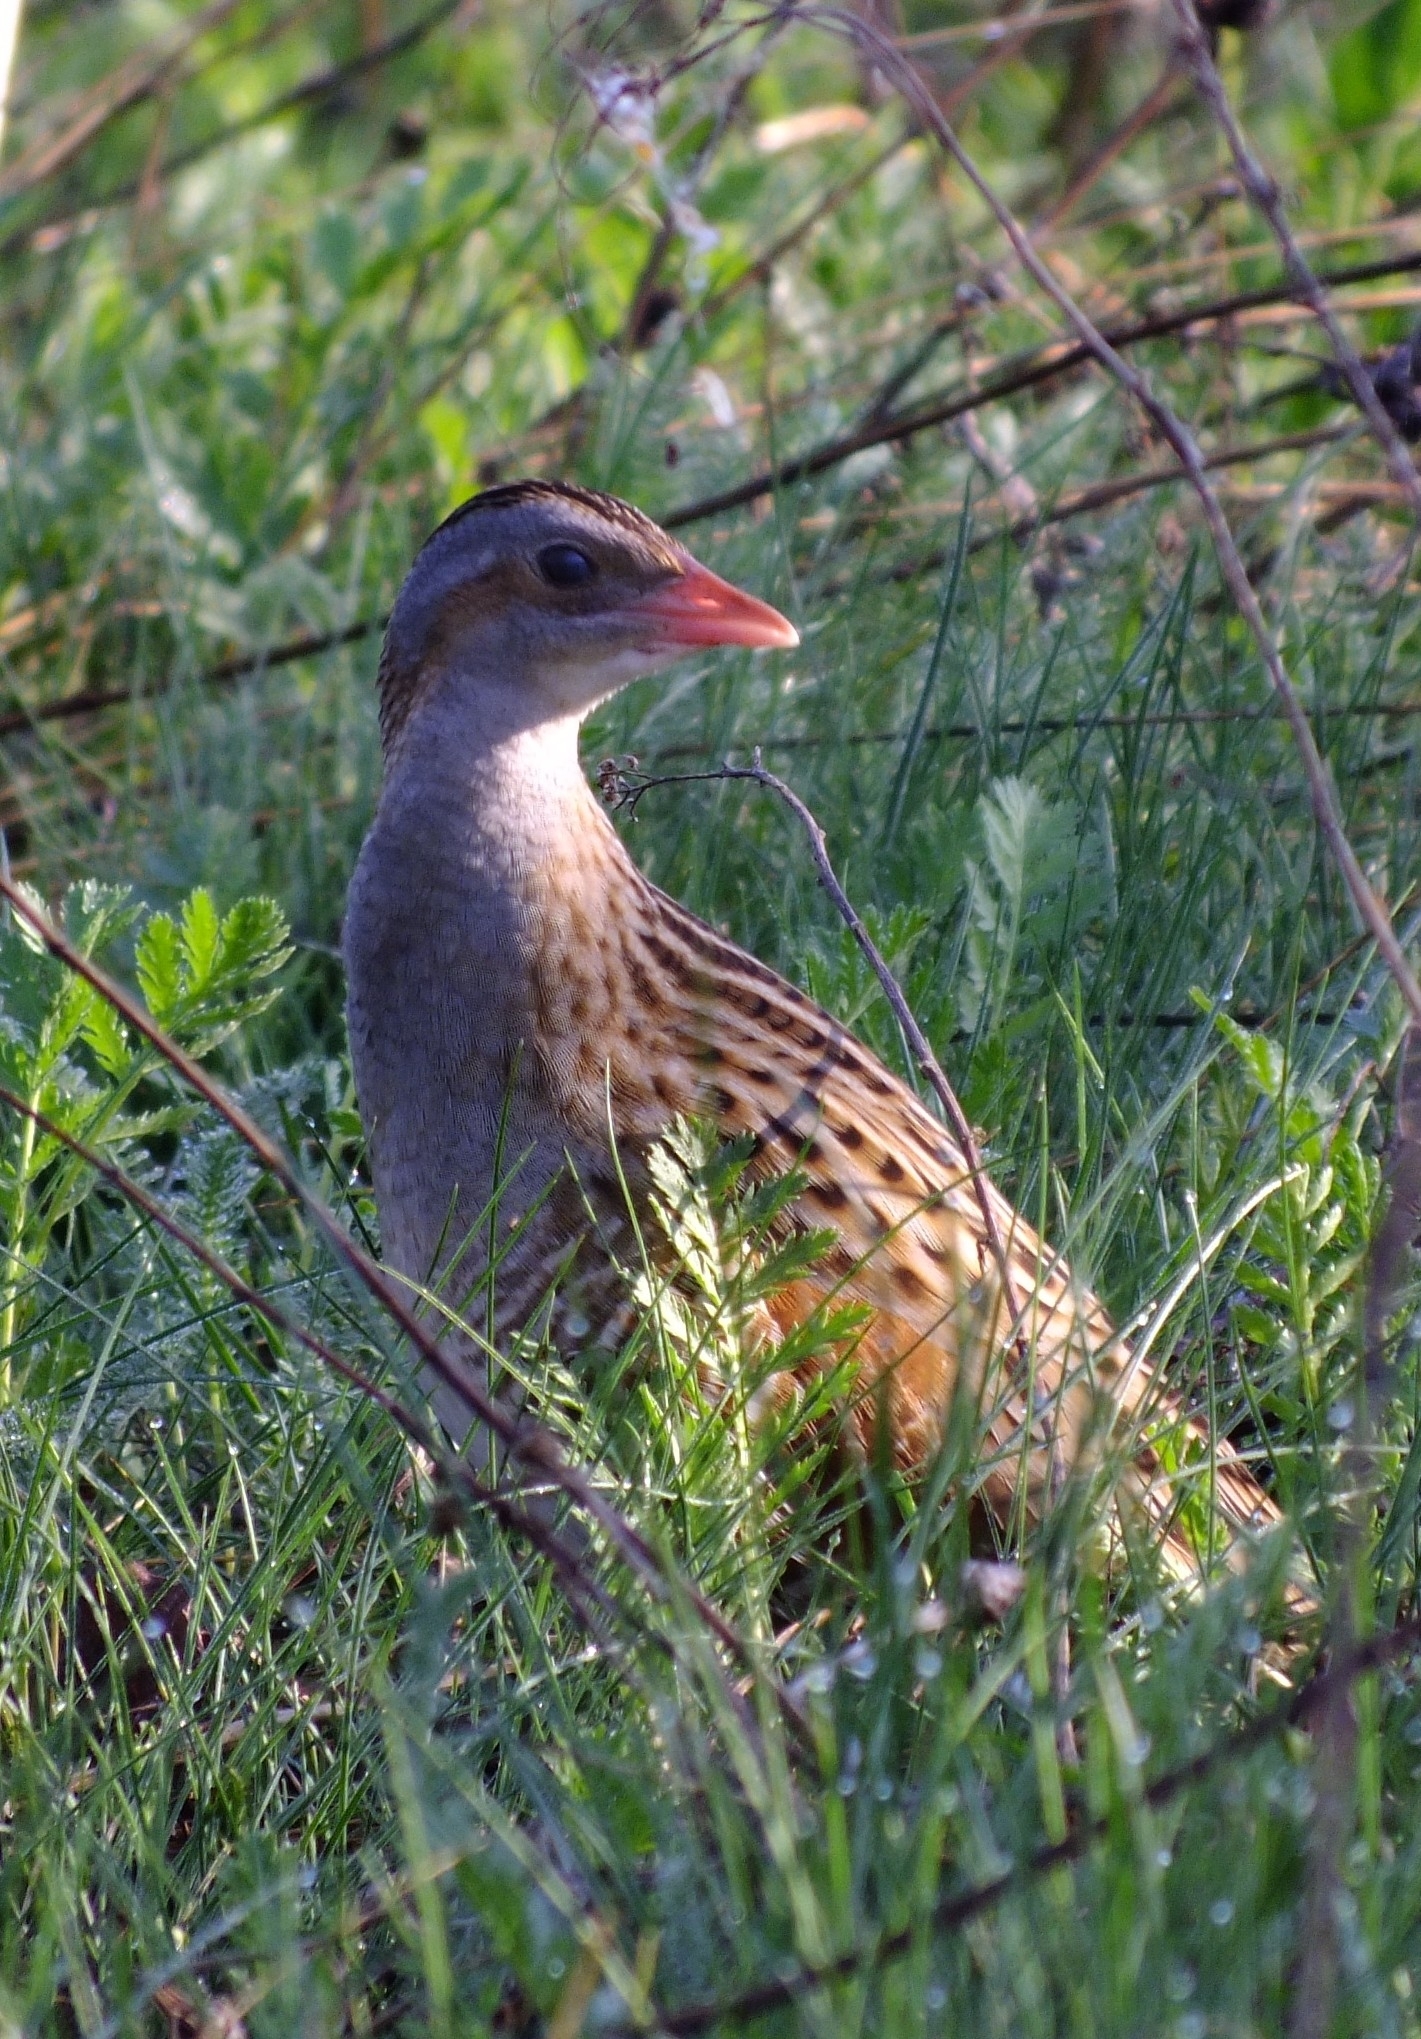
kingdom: Animalia
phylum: Chordata
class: Aves
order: Gruiformes
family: Rallidae
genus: Crex
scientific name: Crex crex
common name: Corn crake
